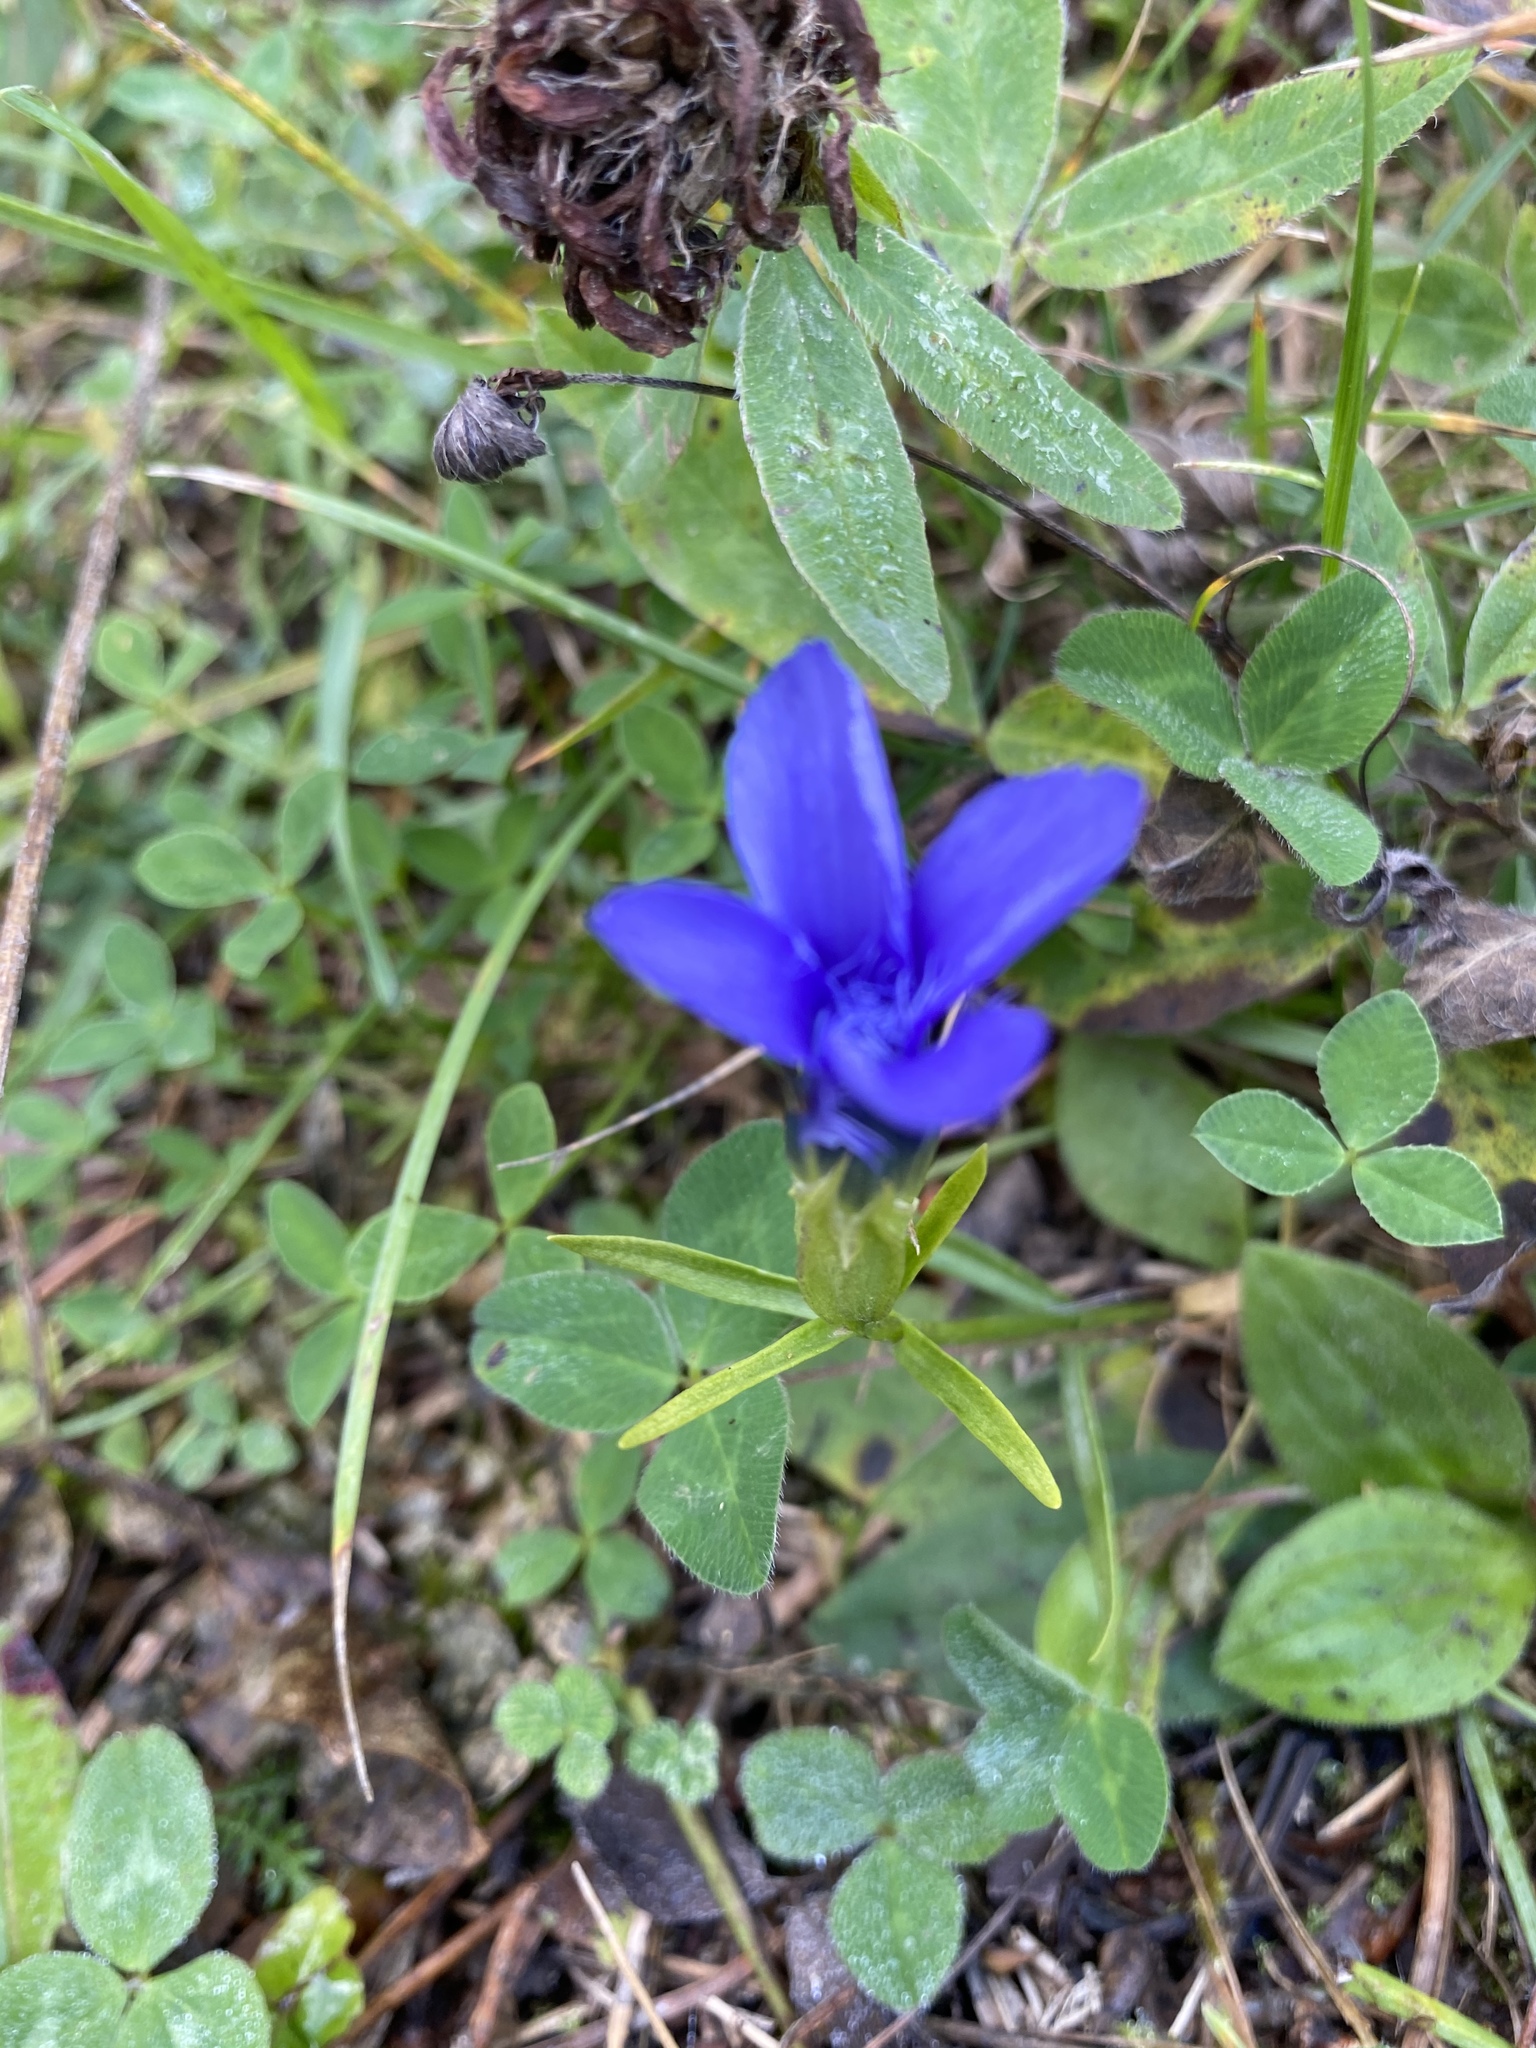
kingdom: Plantae
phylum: Tracheophyta
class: Magnoliopsida
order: Gentianales
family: Gentianaceae
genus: Gentianopsis
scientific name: Gentianopsis ciliata
